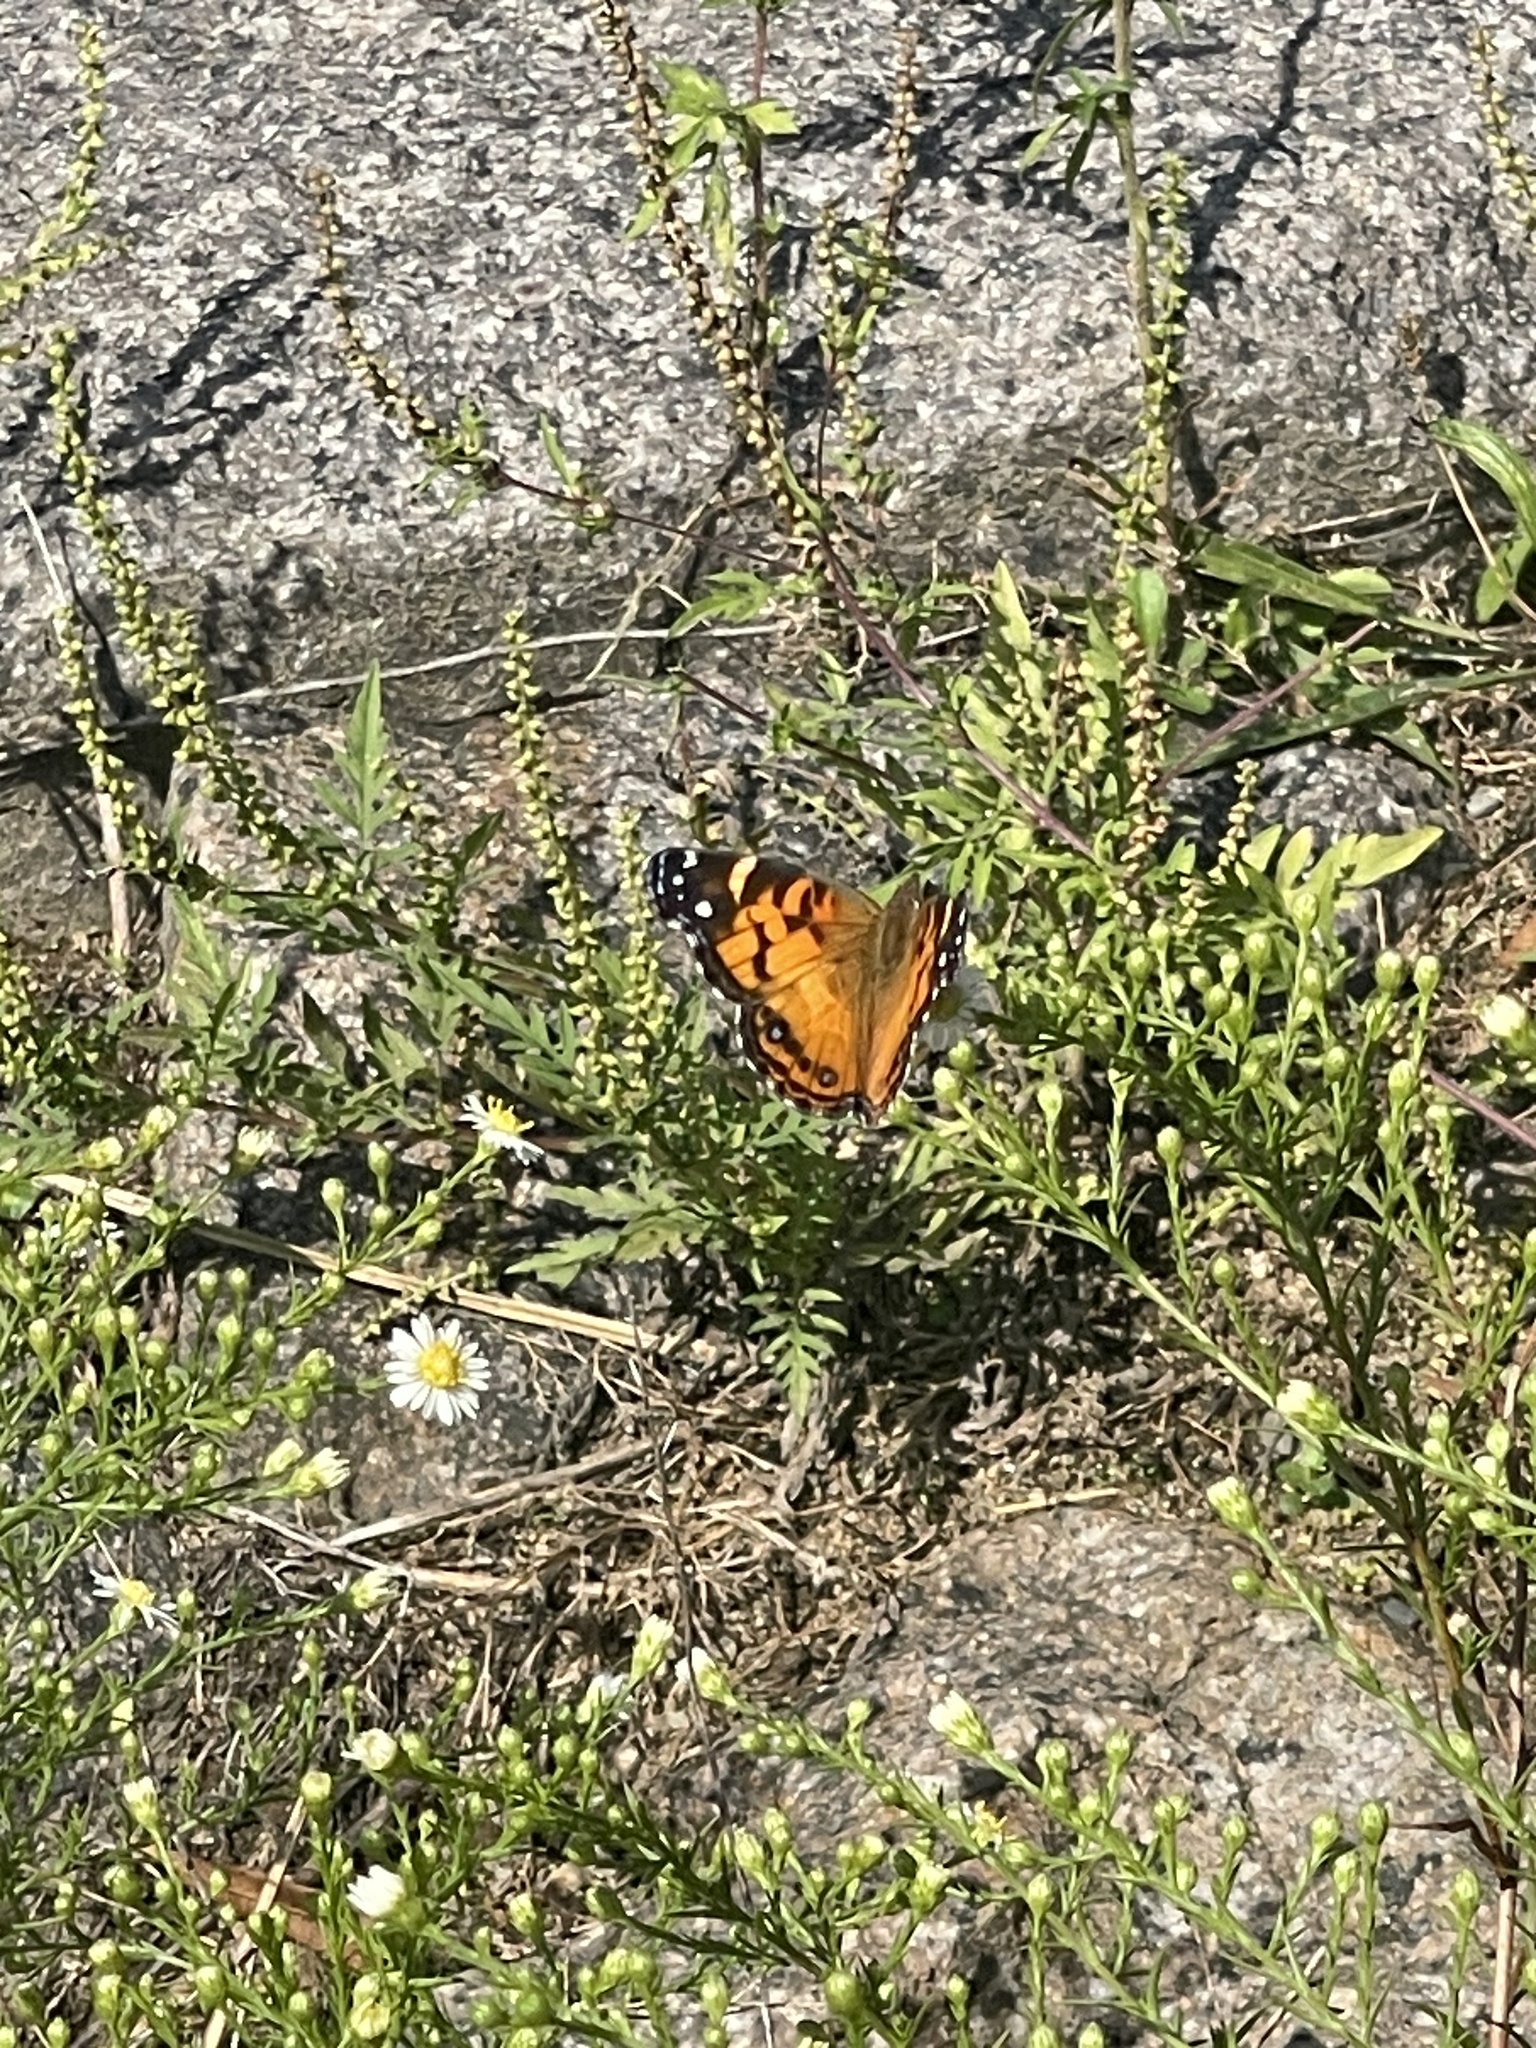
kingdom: Animalia
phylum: Arthropoda
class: Insecta
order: Lepidoptera
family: Nymphalidae
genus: Vanessa
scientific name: Vanessa virginiensis
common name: American lady
